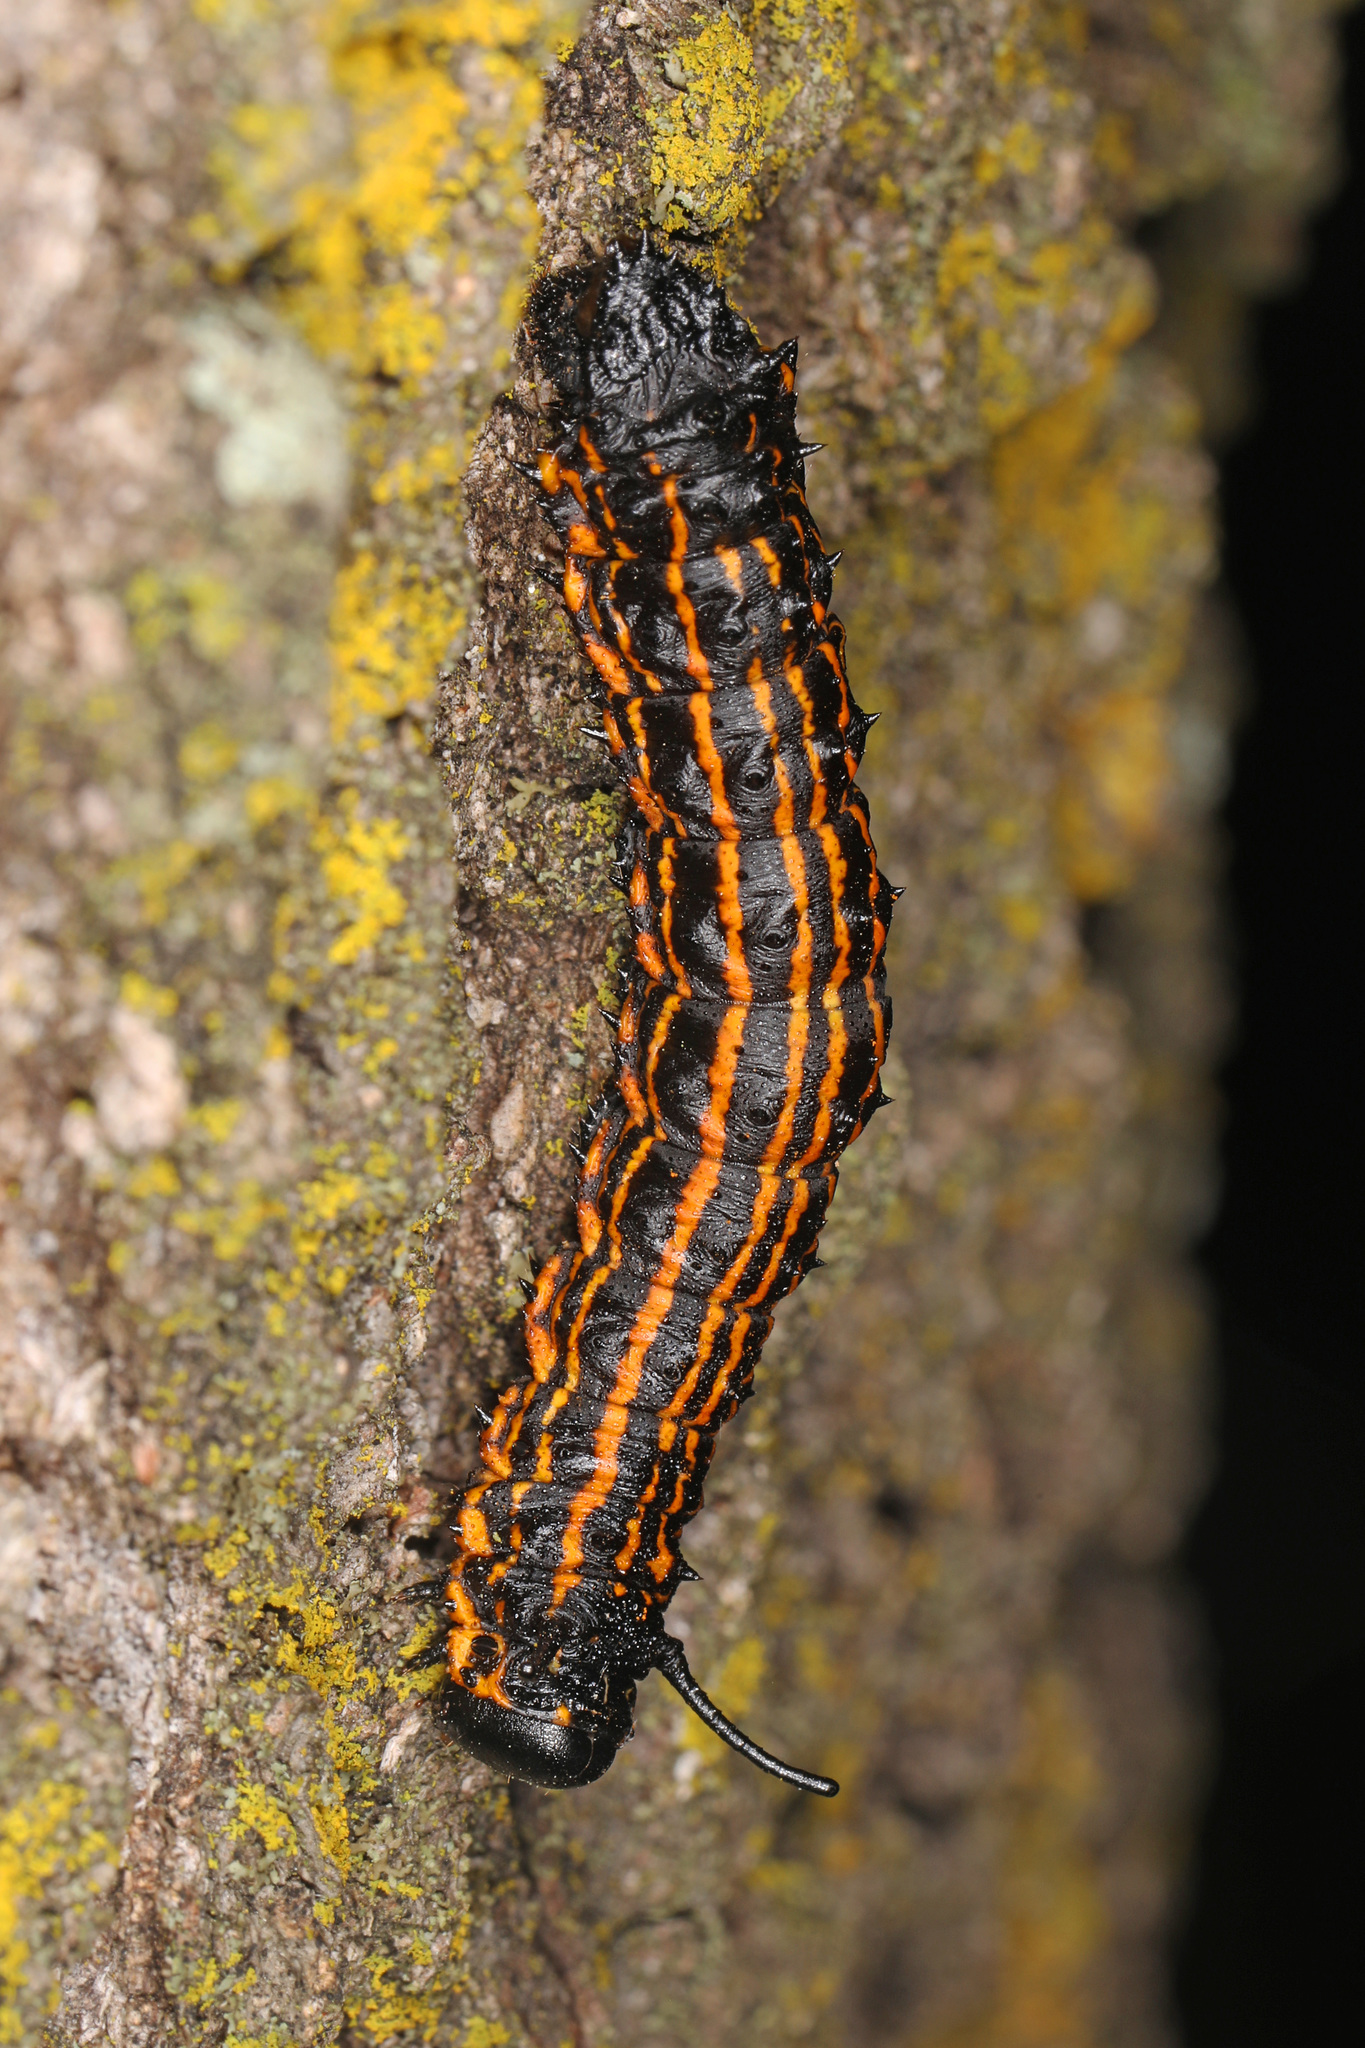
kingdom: Animalia
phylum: Arthropoda
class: Insecta
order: Lepidoptera
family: Saturniidae
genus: Anisota
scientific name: Anisota senatoria
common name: Orange-striped oakworm moth
